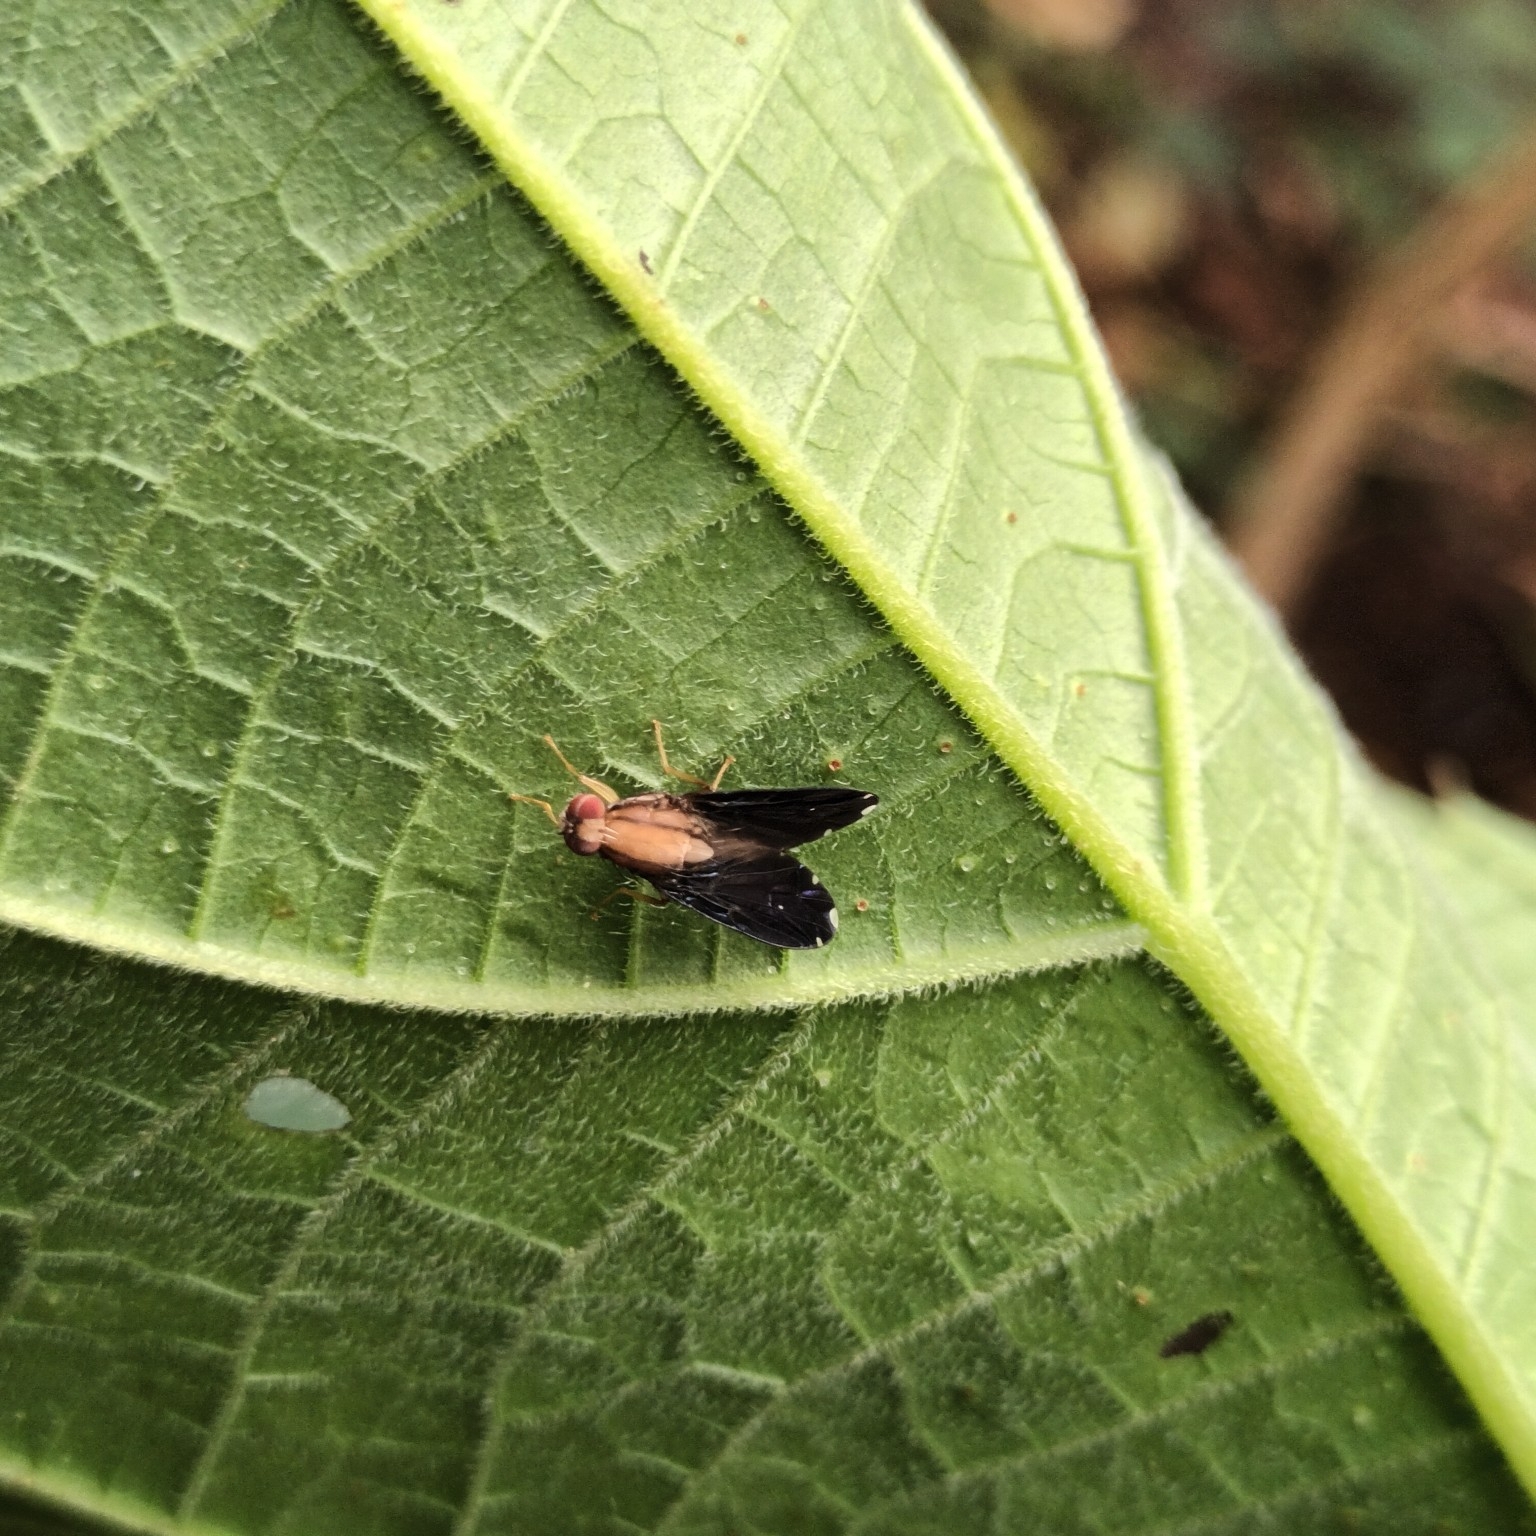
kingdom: Animalia
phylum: Arthropoda
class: Insecta
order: Diptera
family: Tephritidae
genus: Rioxa
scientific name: Rioxa discalis
